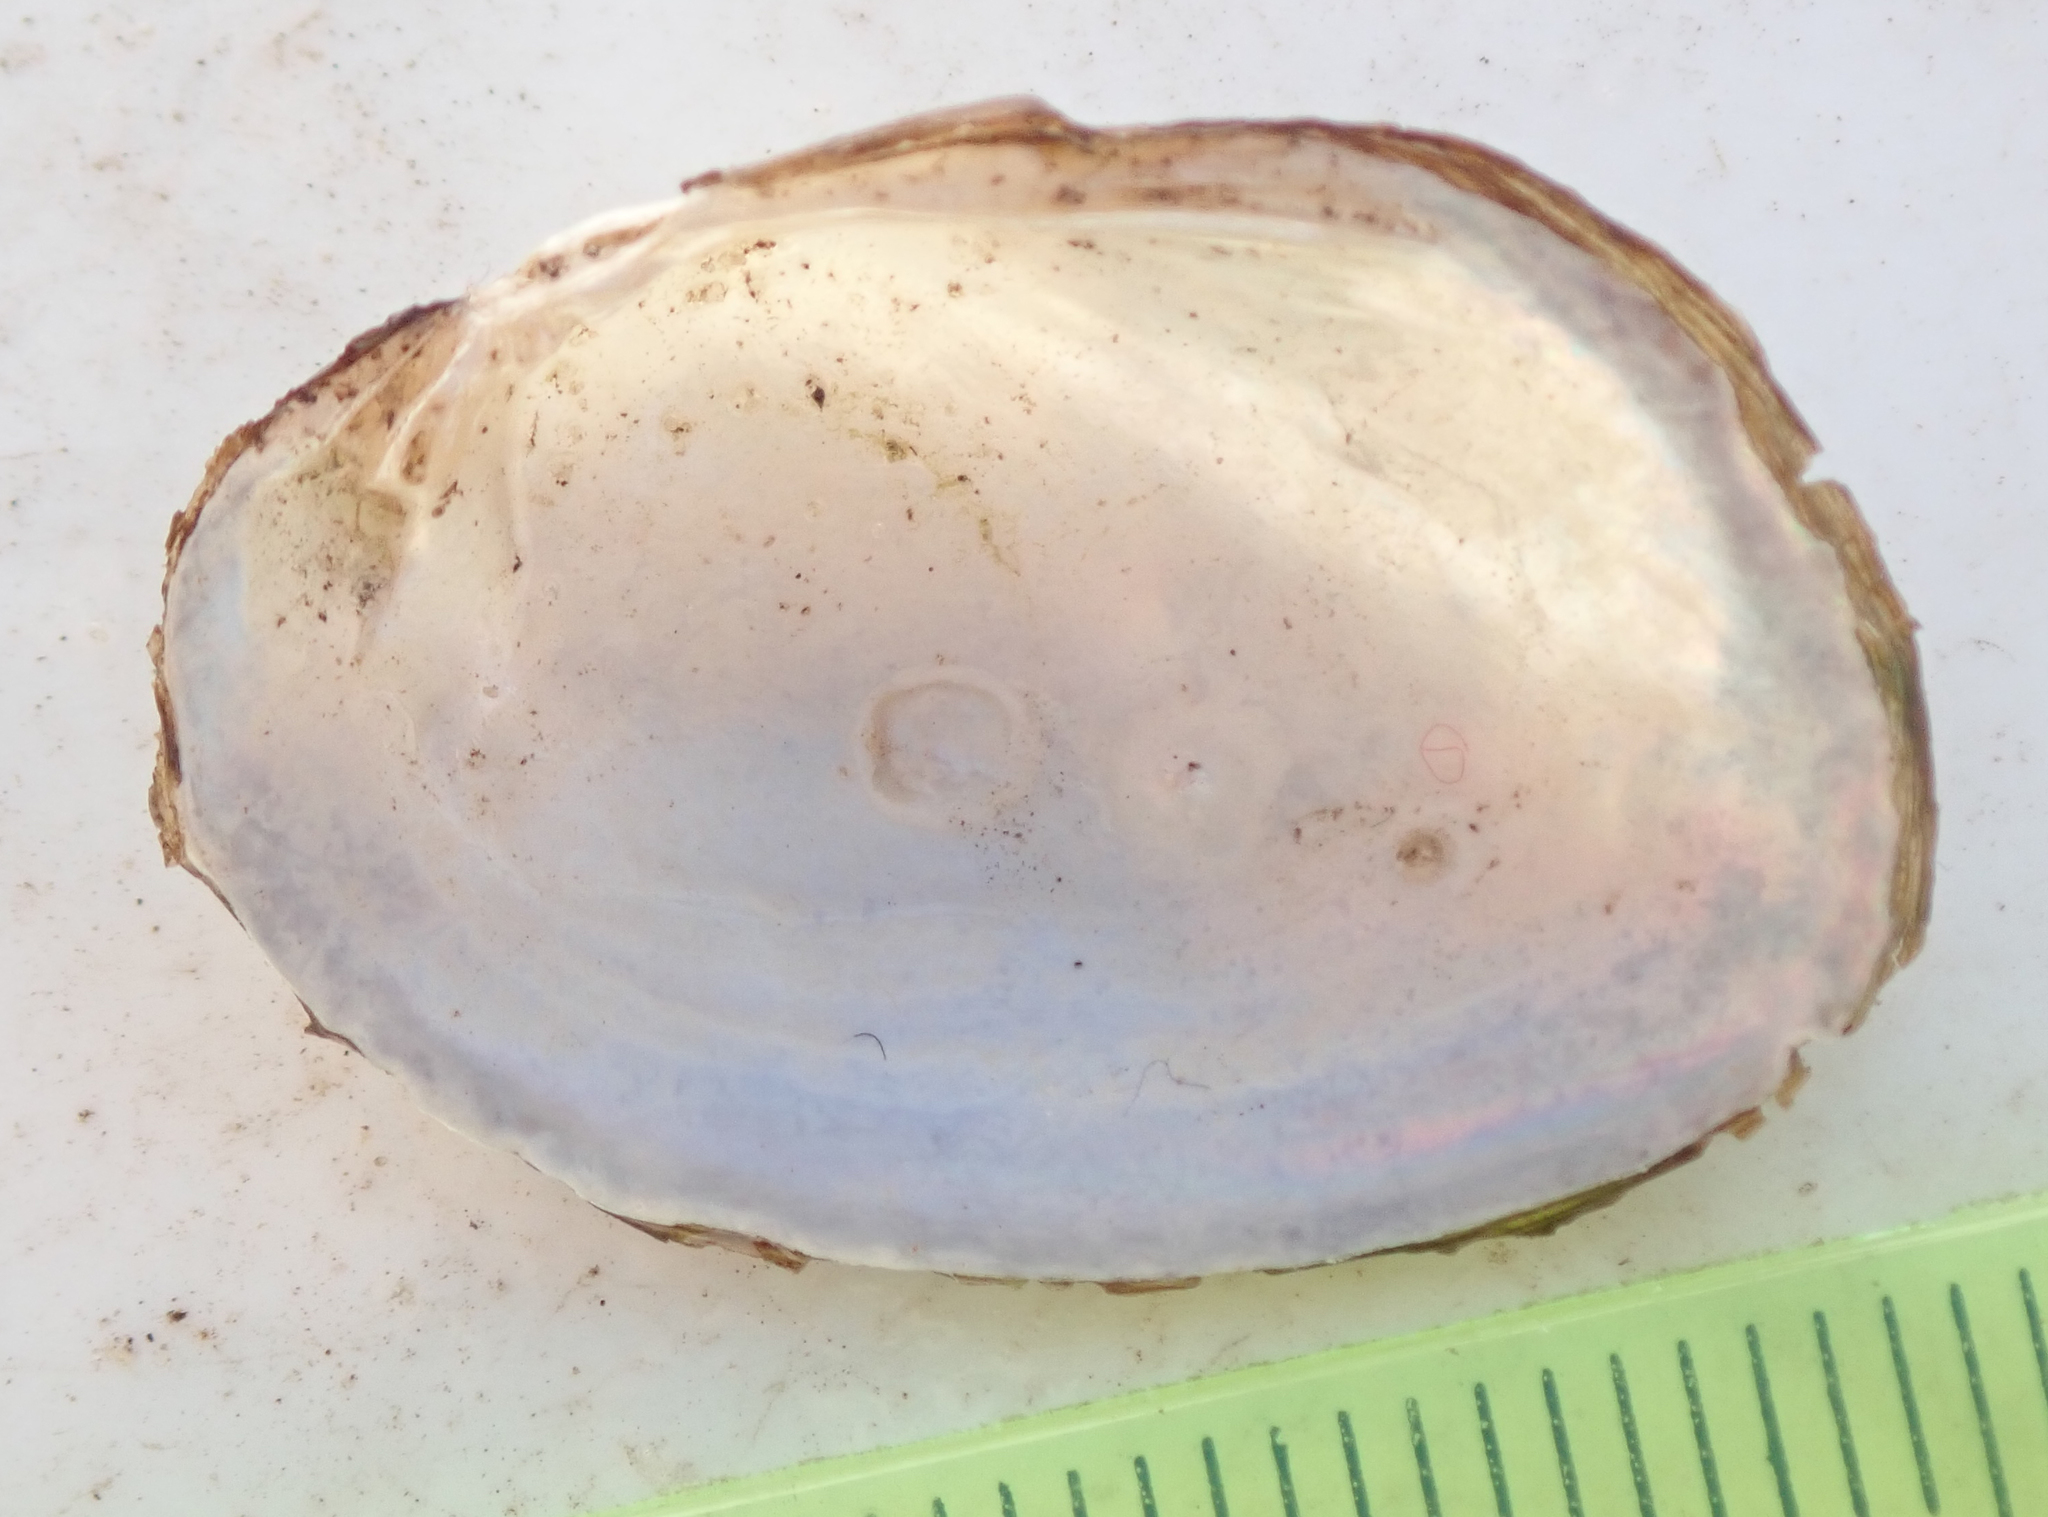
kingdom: Animalia
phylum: Mollusca
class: Bivalvia
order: Unionida
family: Unionidae
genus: Coelatura
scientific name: Coelatura kunenensis
